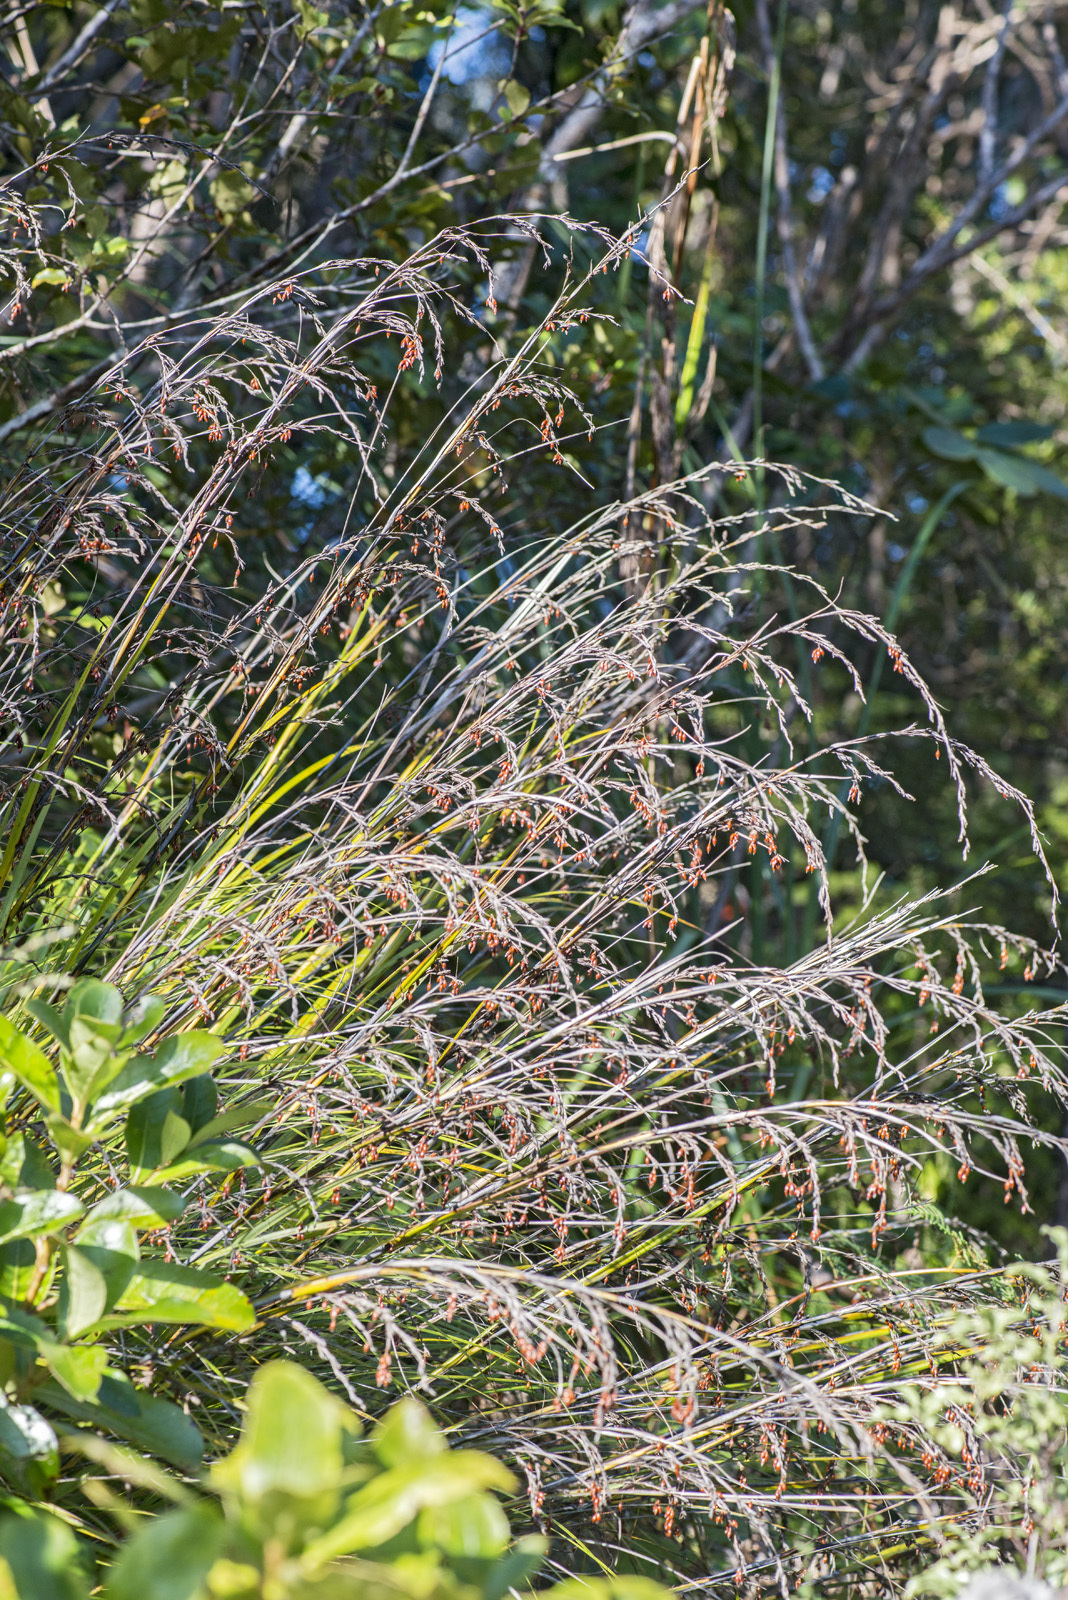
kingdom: Plantae
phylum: Tracheophyta
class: Liliopsida
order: Poales
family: Cyperaceae
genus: Gahnia
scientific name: Gahnia pauciflora
